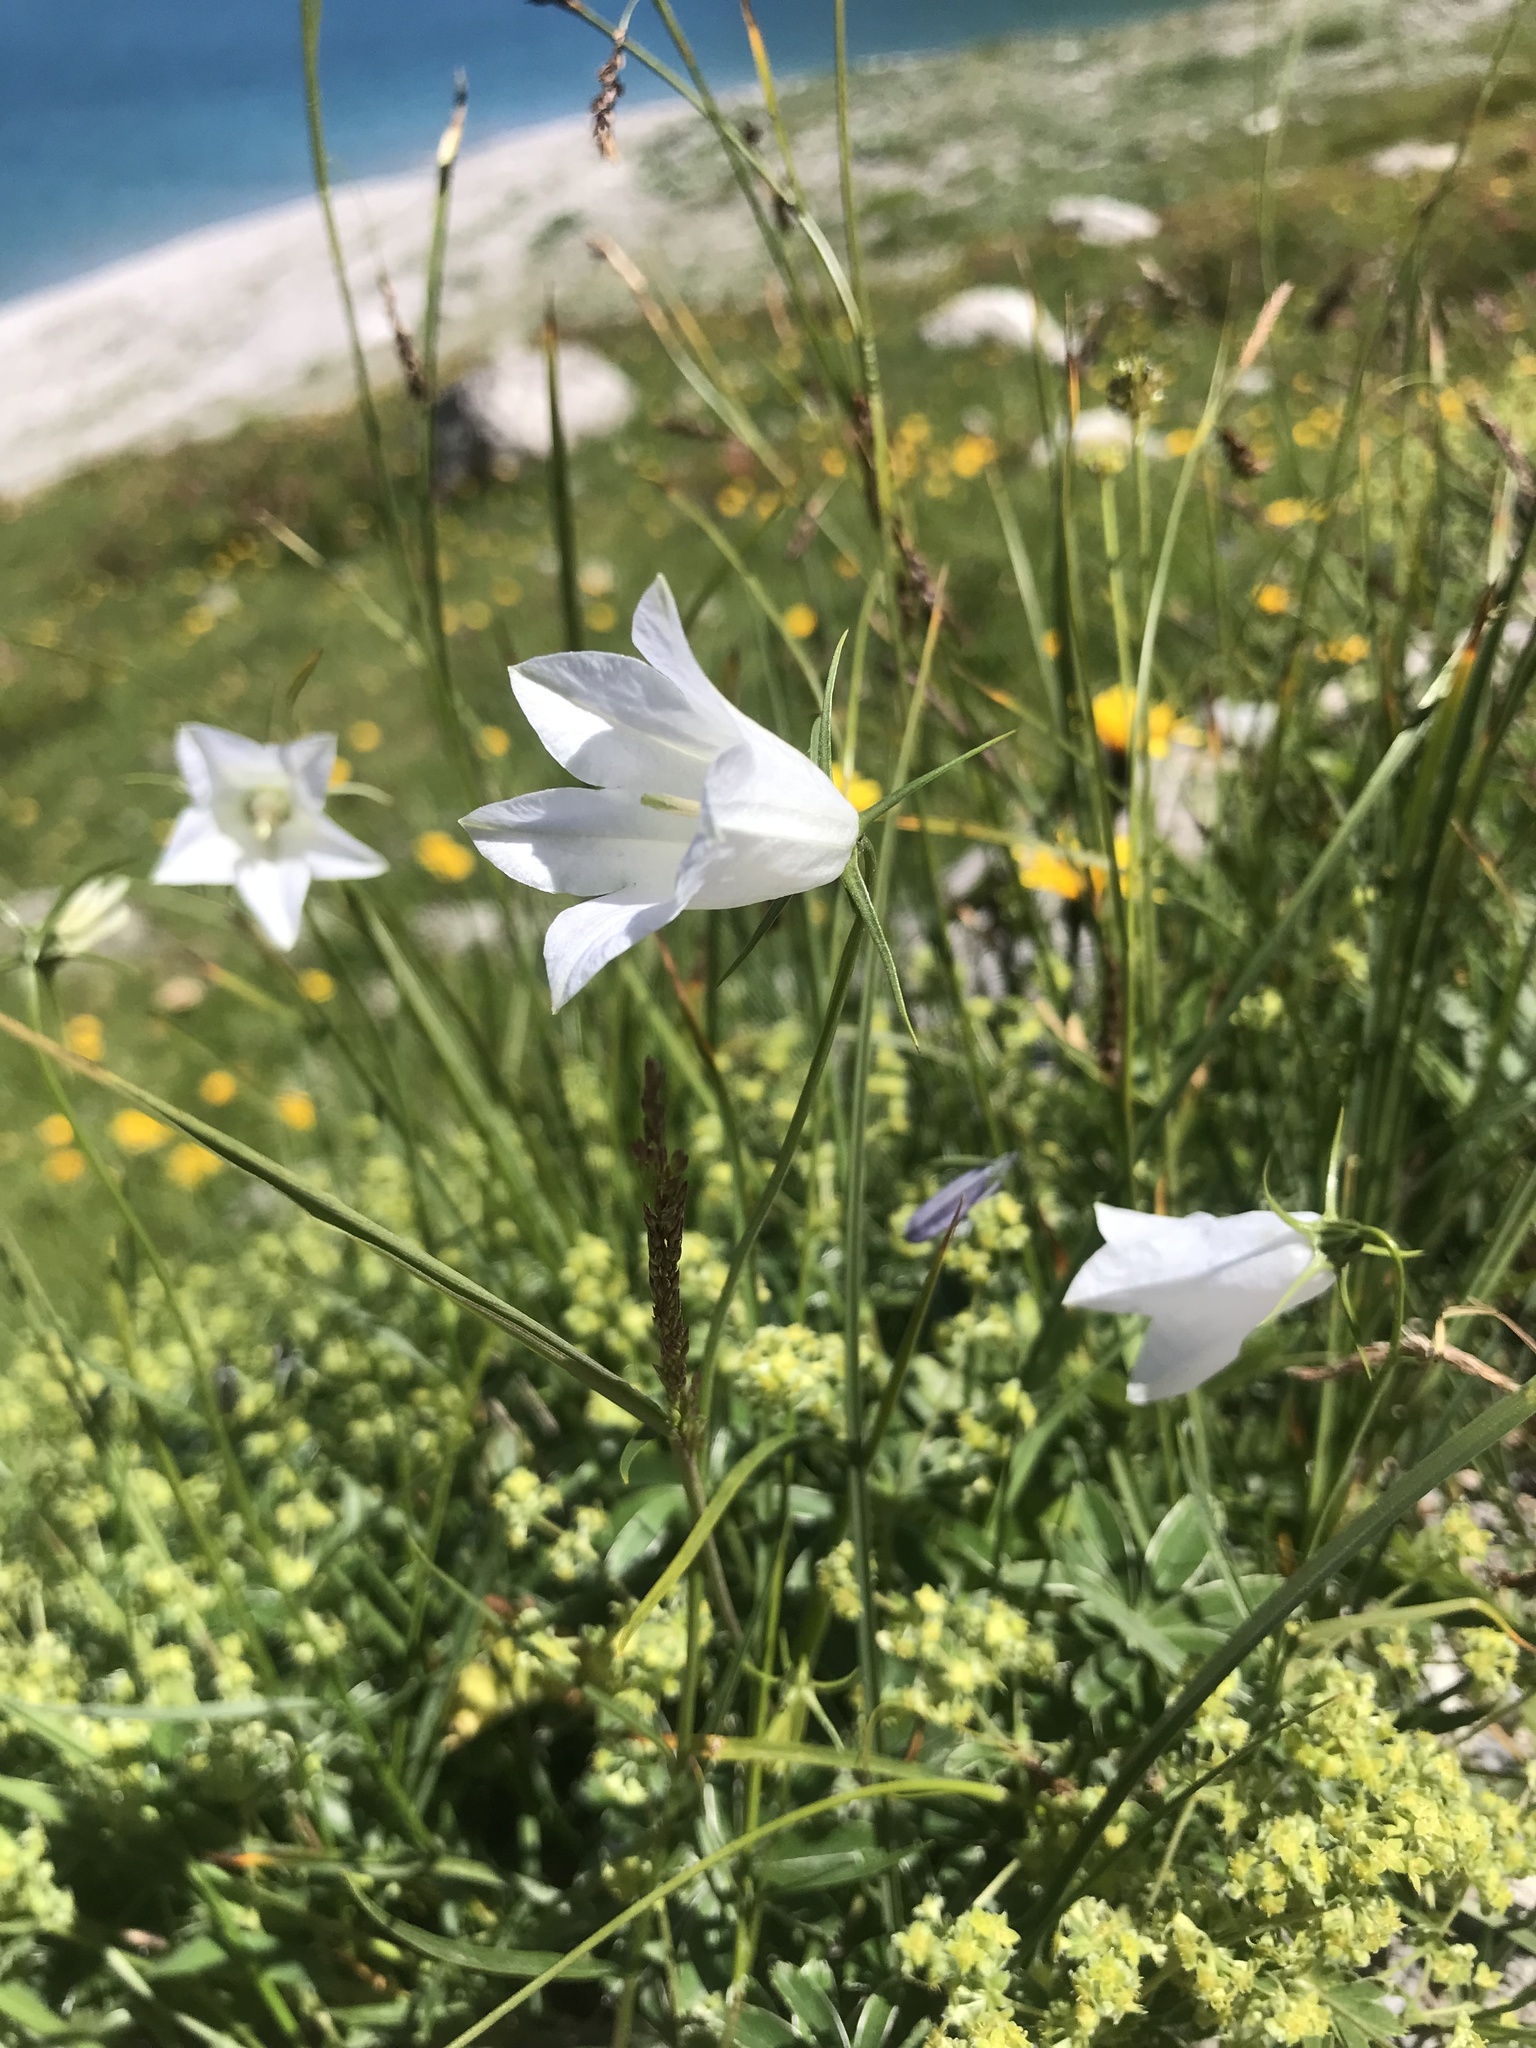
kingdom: Plantae
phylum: Tracheophyta
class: Magnoliopsida
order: Asterales
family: Campanulaceae
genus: Campanula
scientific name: Campanula scheuchzeri
